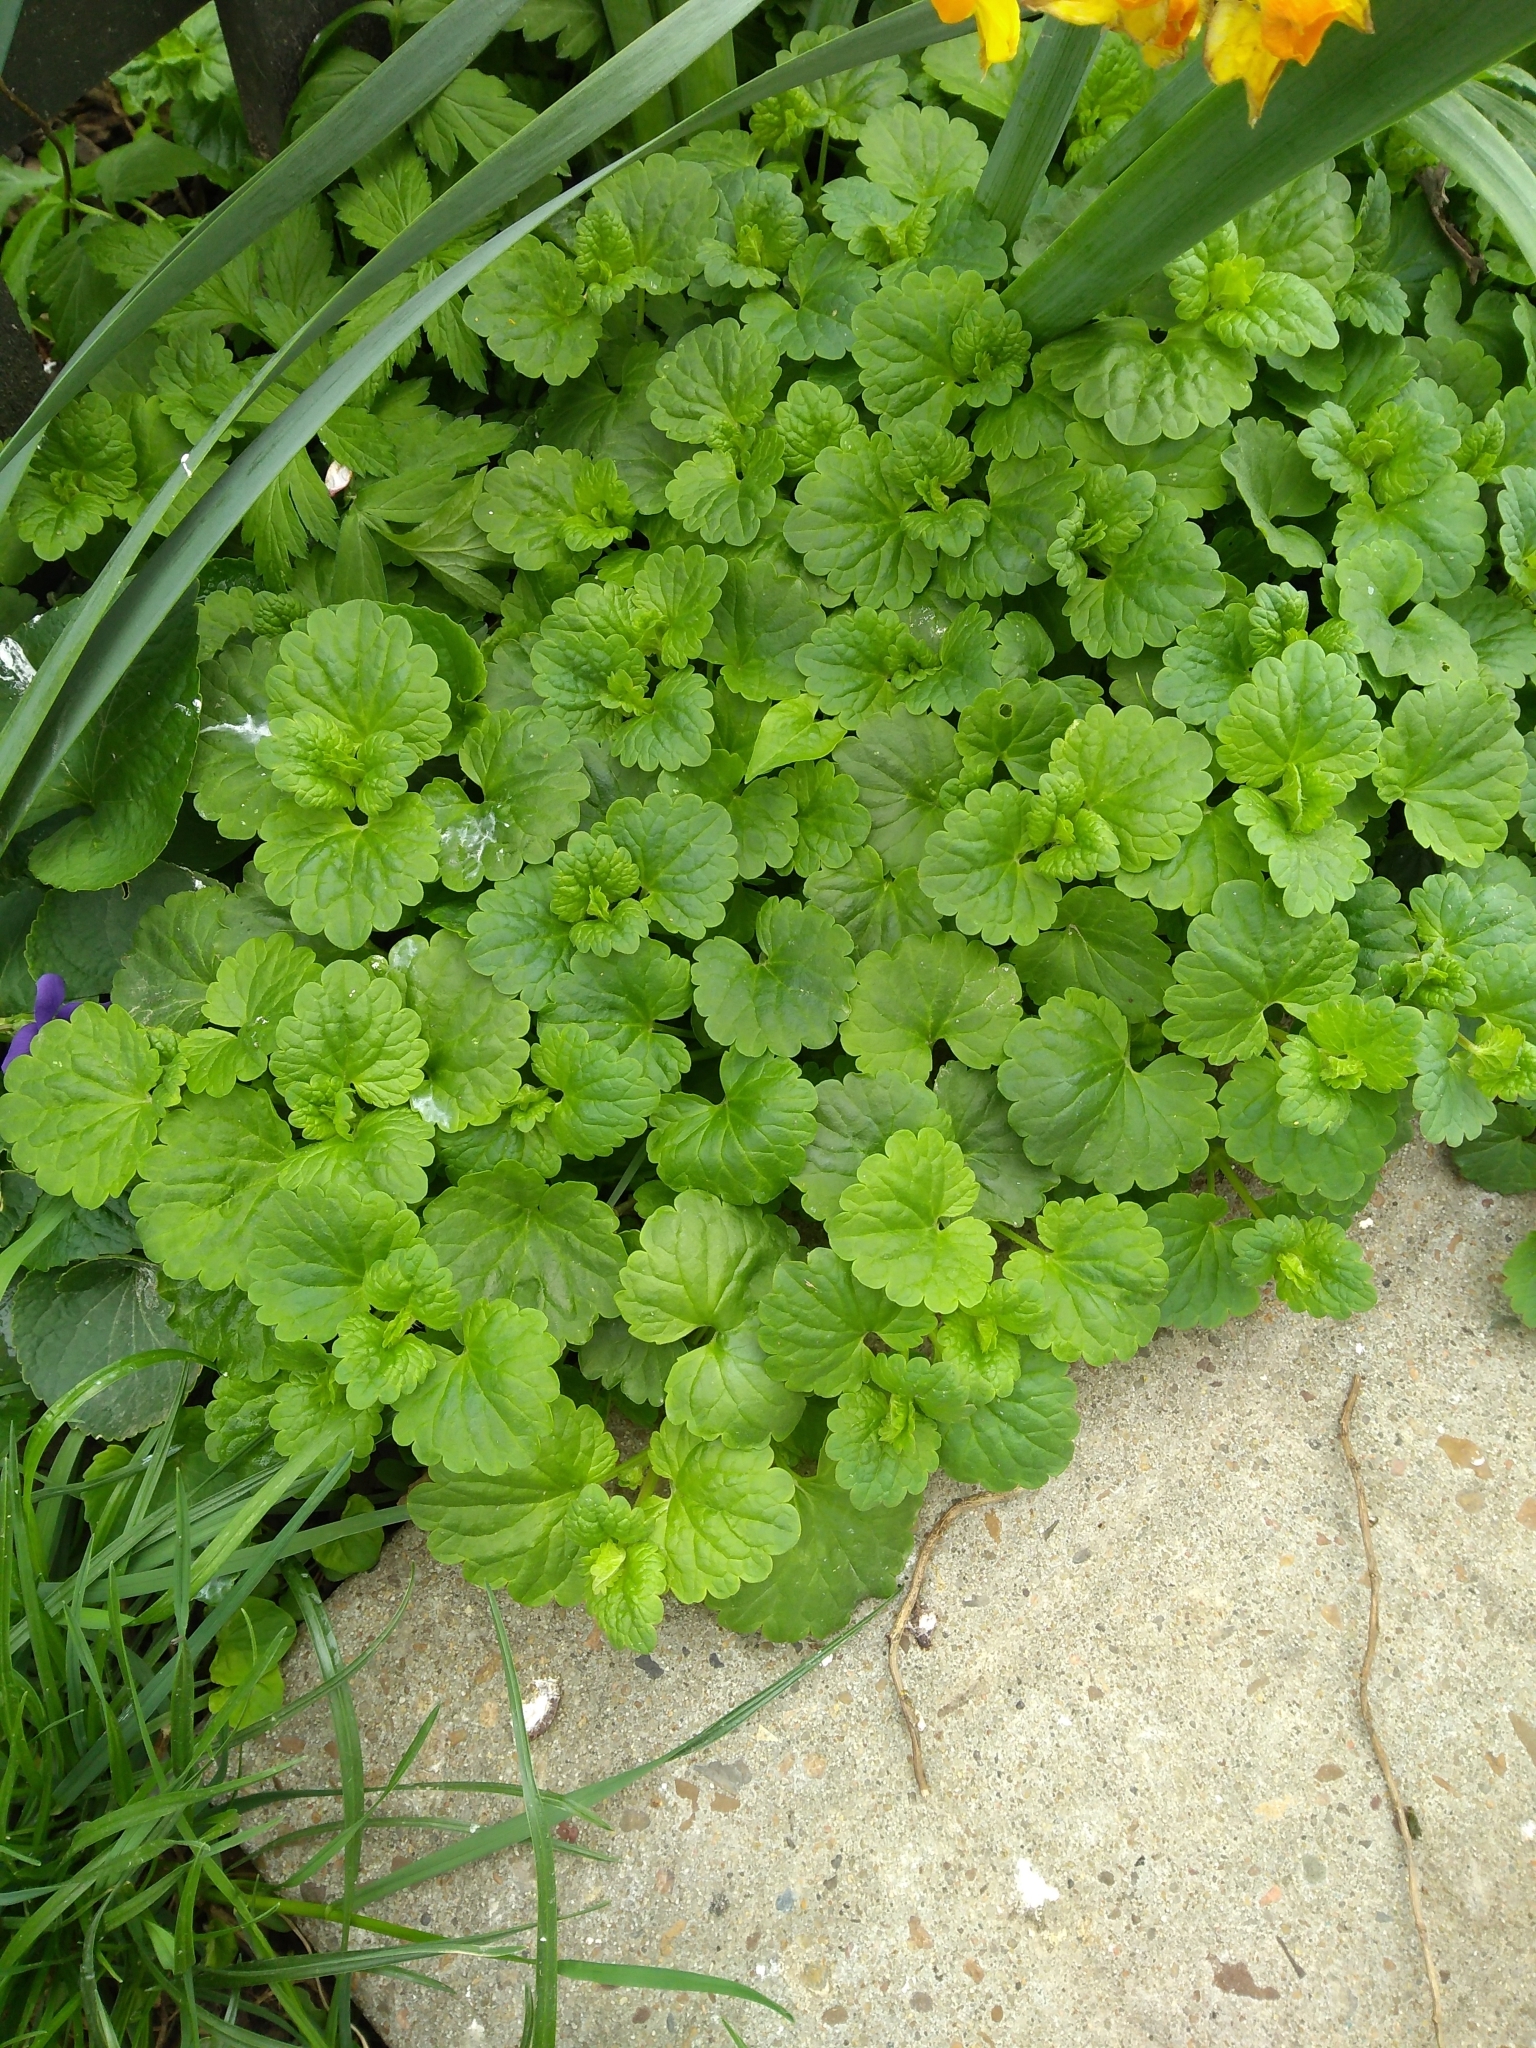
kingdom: Plantae
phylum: Tracheophyta
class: Magnoliopsida
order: Lamiales
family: Lamiaceae
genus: Glechoma
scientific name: Glechoma hederacea
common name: Ground ivy
